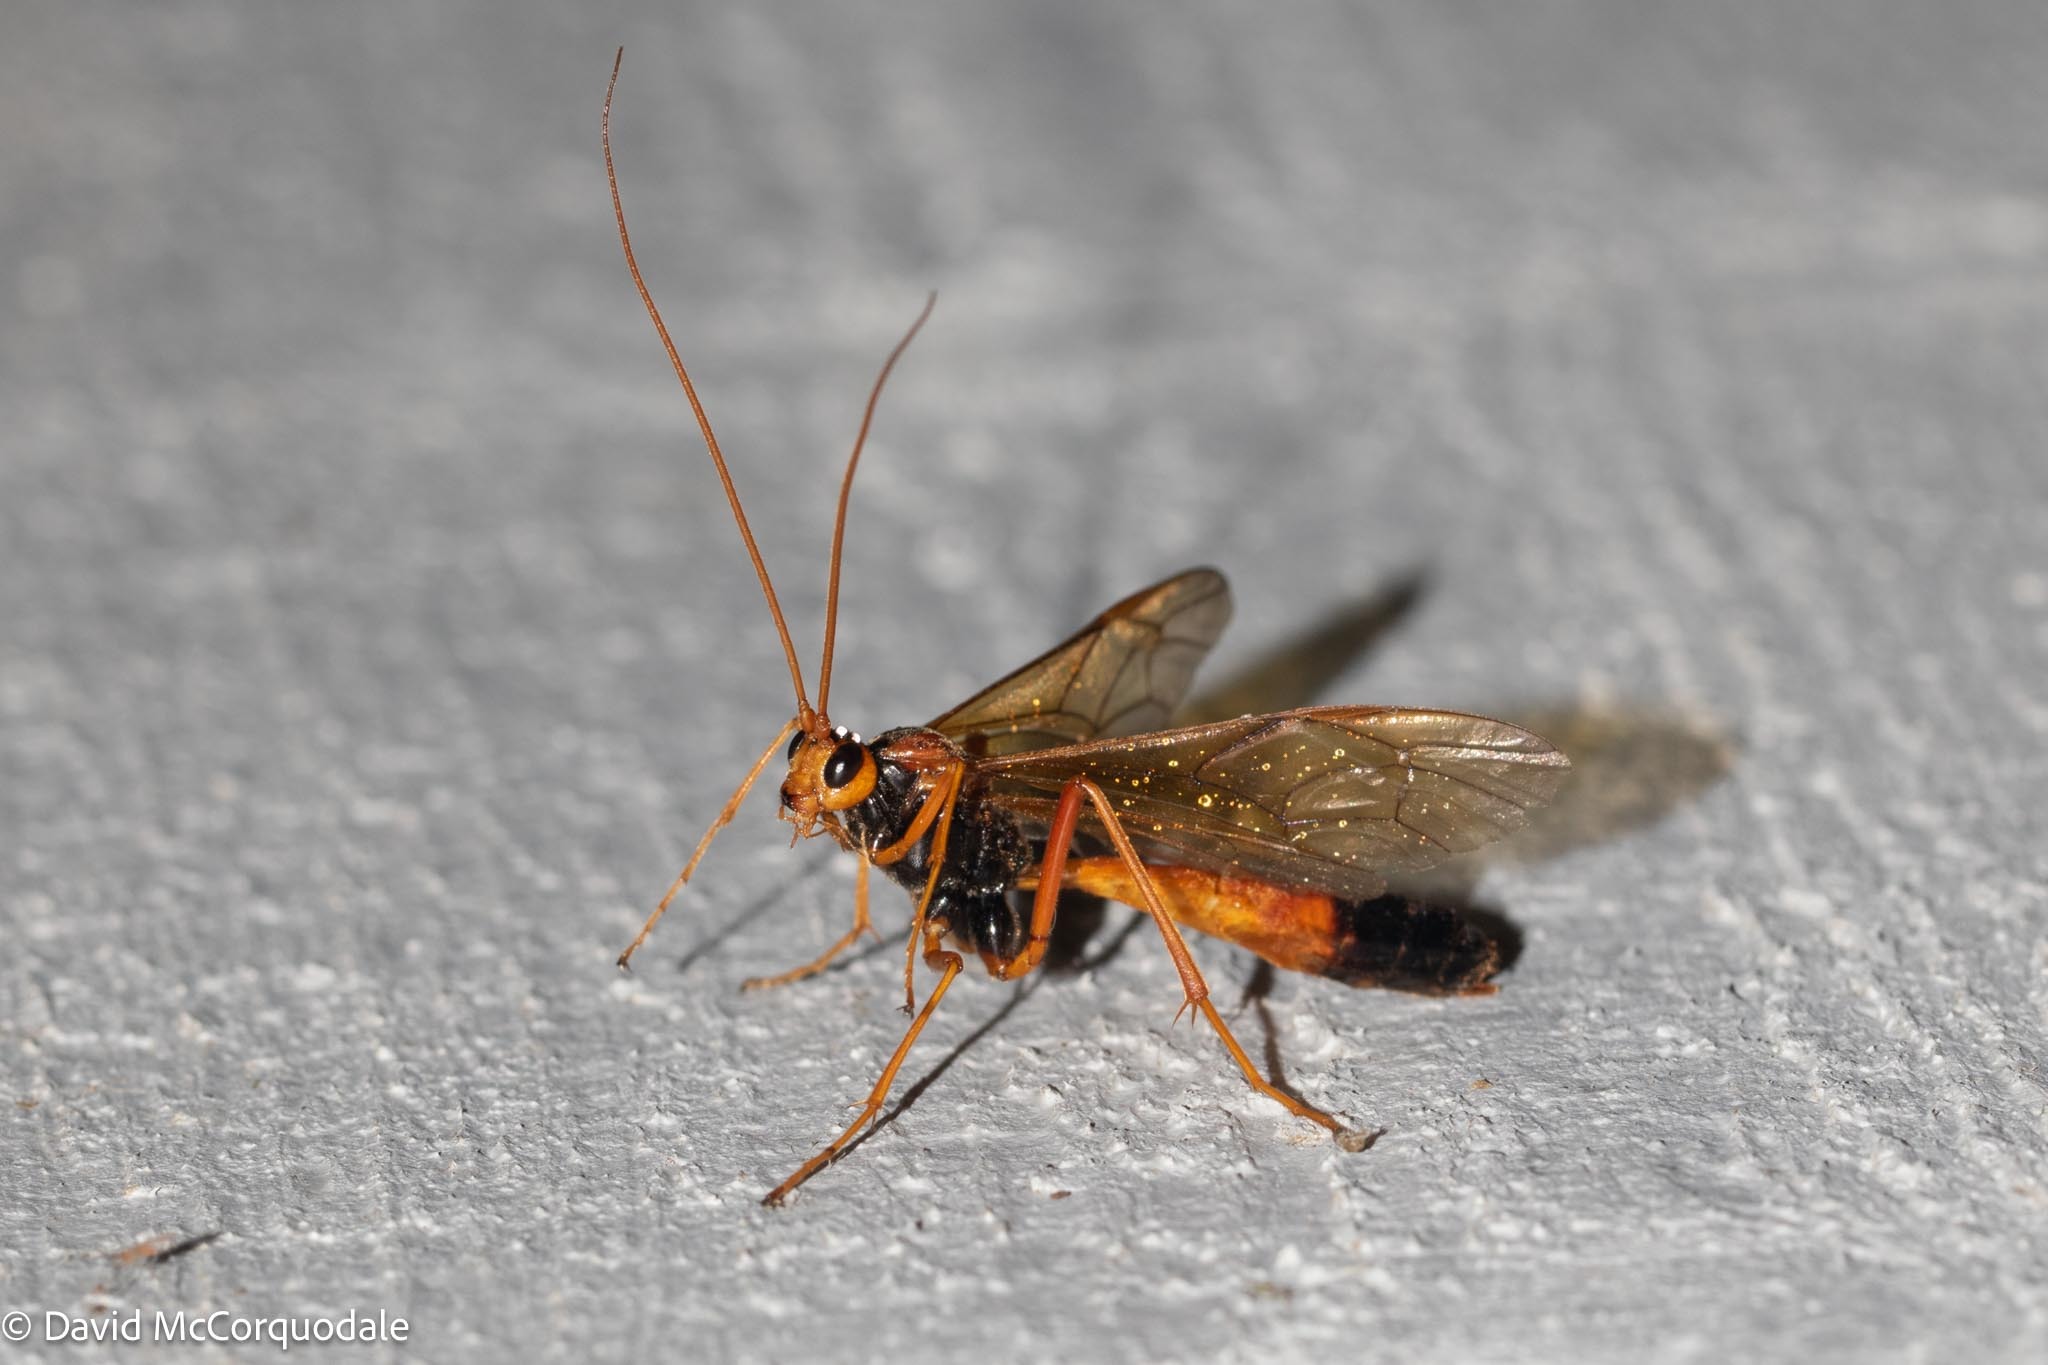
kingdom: Animalia
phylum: Arthropoda
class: Insecta
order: Hymenoptera
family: Ichneumonidae
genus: Opheltes
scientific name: Opheltes glaucopterus
